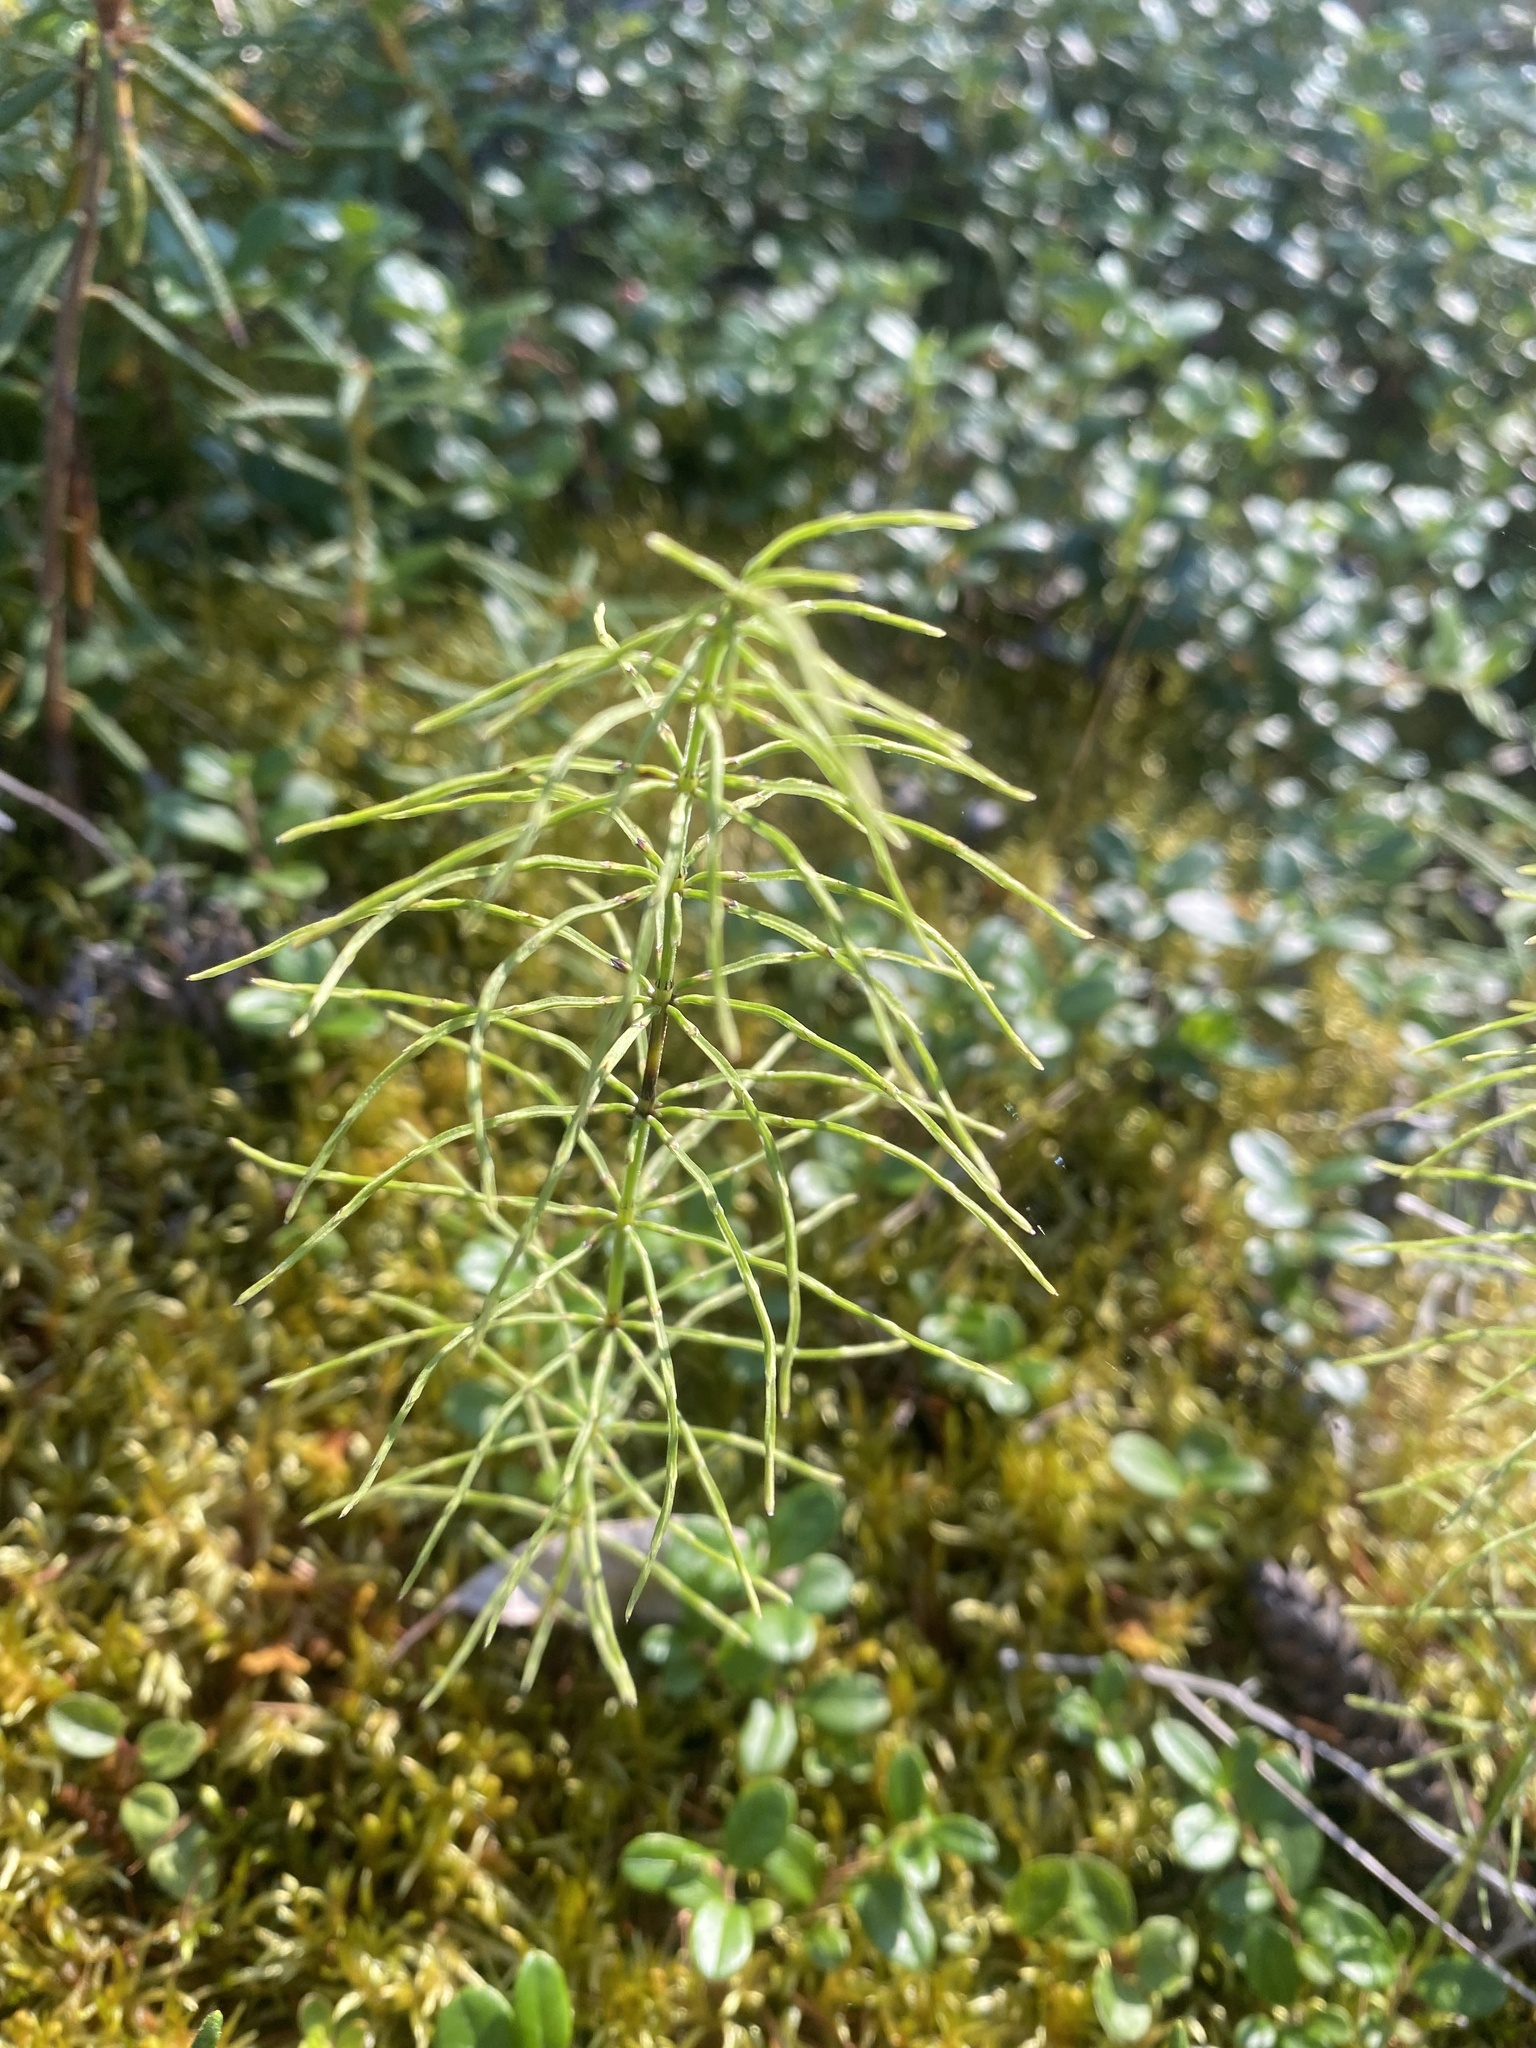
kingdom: Plantae
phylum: Tracheophyta
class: Polypodiopsida
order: Equisetales
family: Equisetaceae
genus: Equisetum
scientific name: Equisetum pratense
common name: Meadow horsetail
